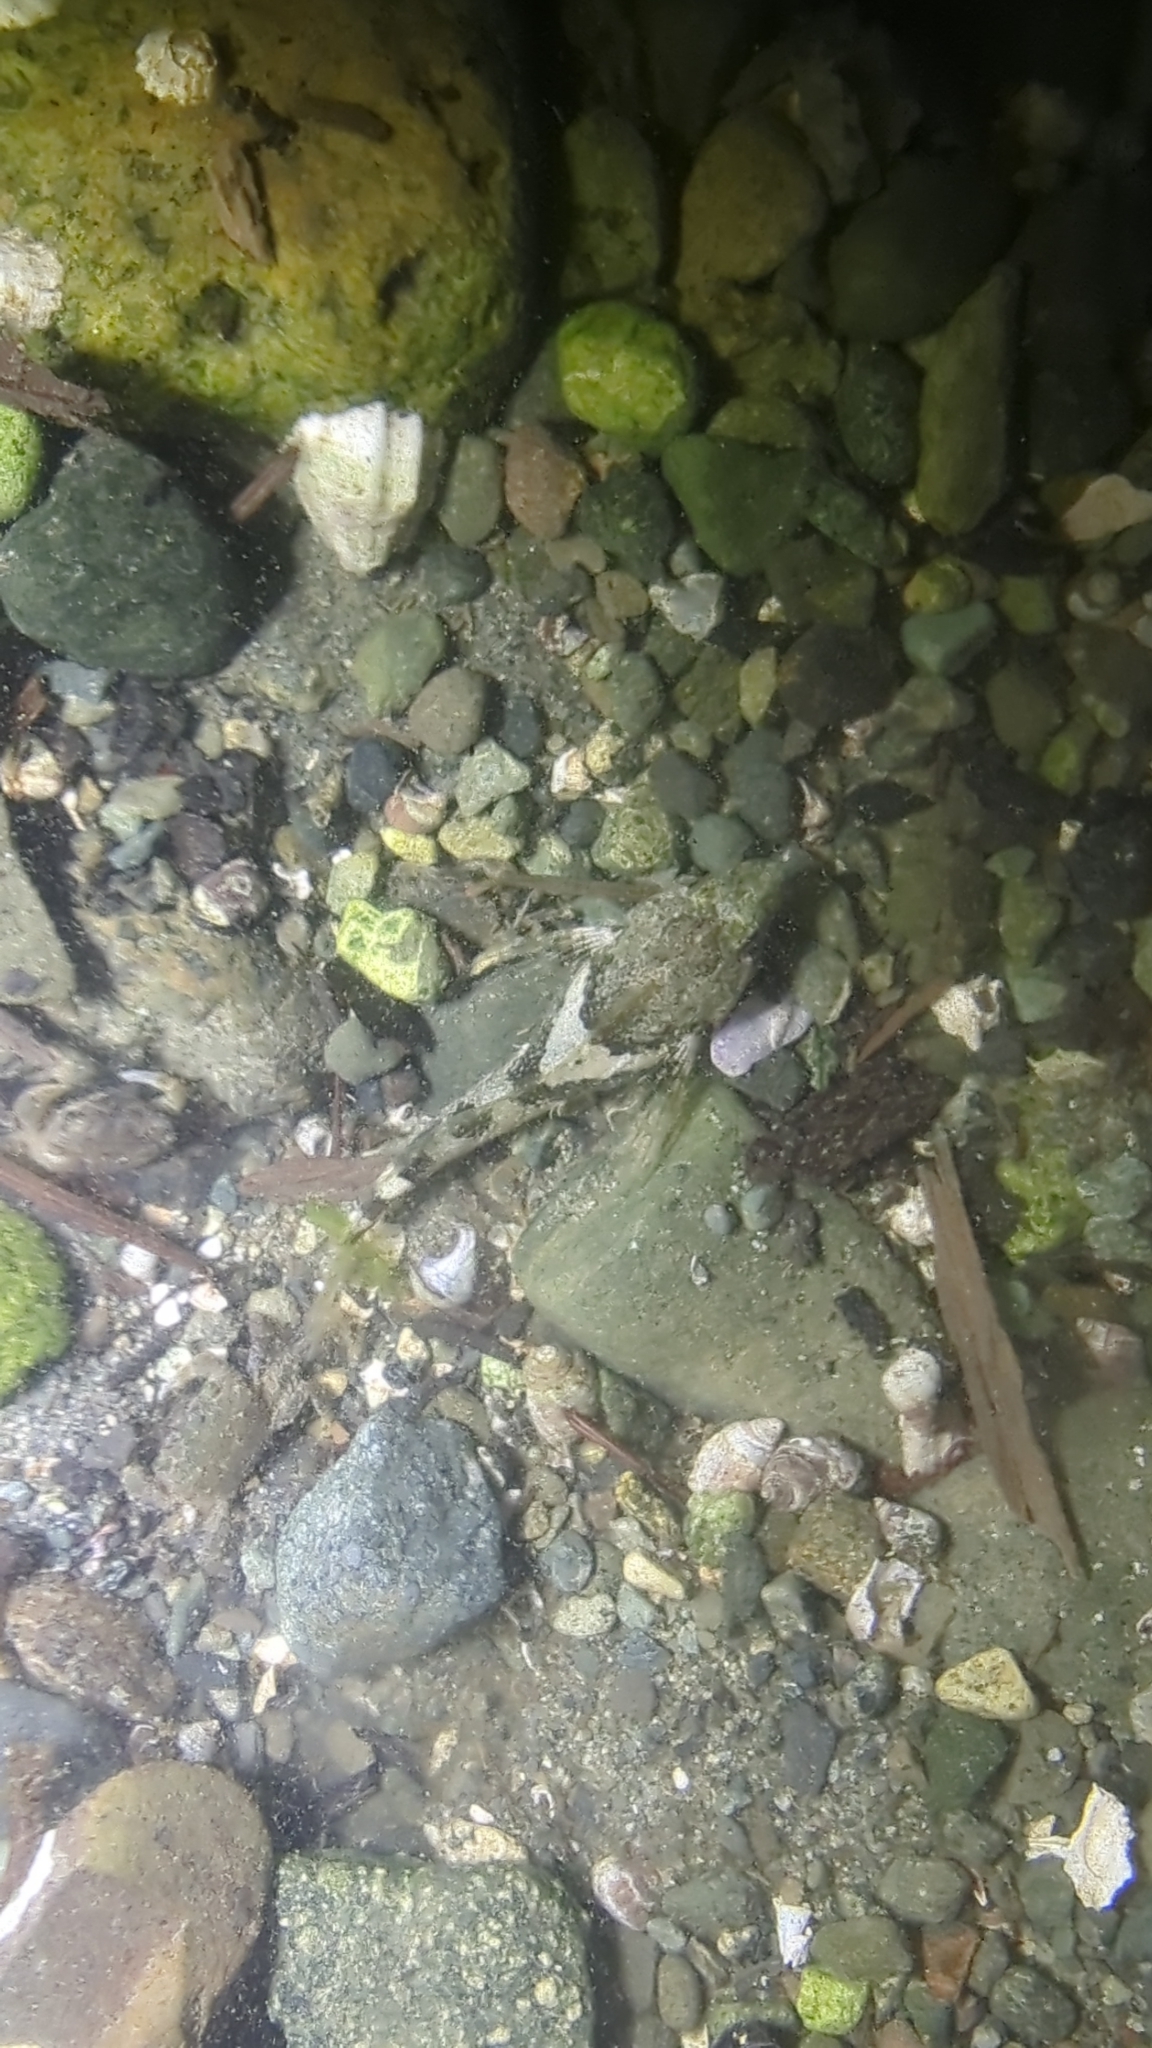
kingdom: Animalia
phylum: Chordata
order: Scorpaeniformes
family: Cottidae
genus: Oligocottus
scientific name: Oligocottus maculosus
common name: Tidepool sculpin
